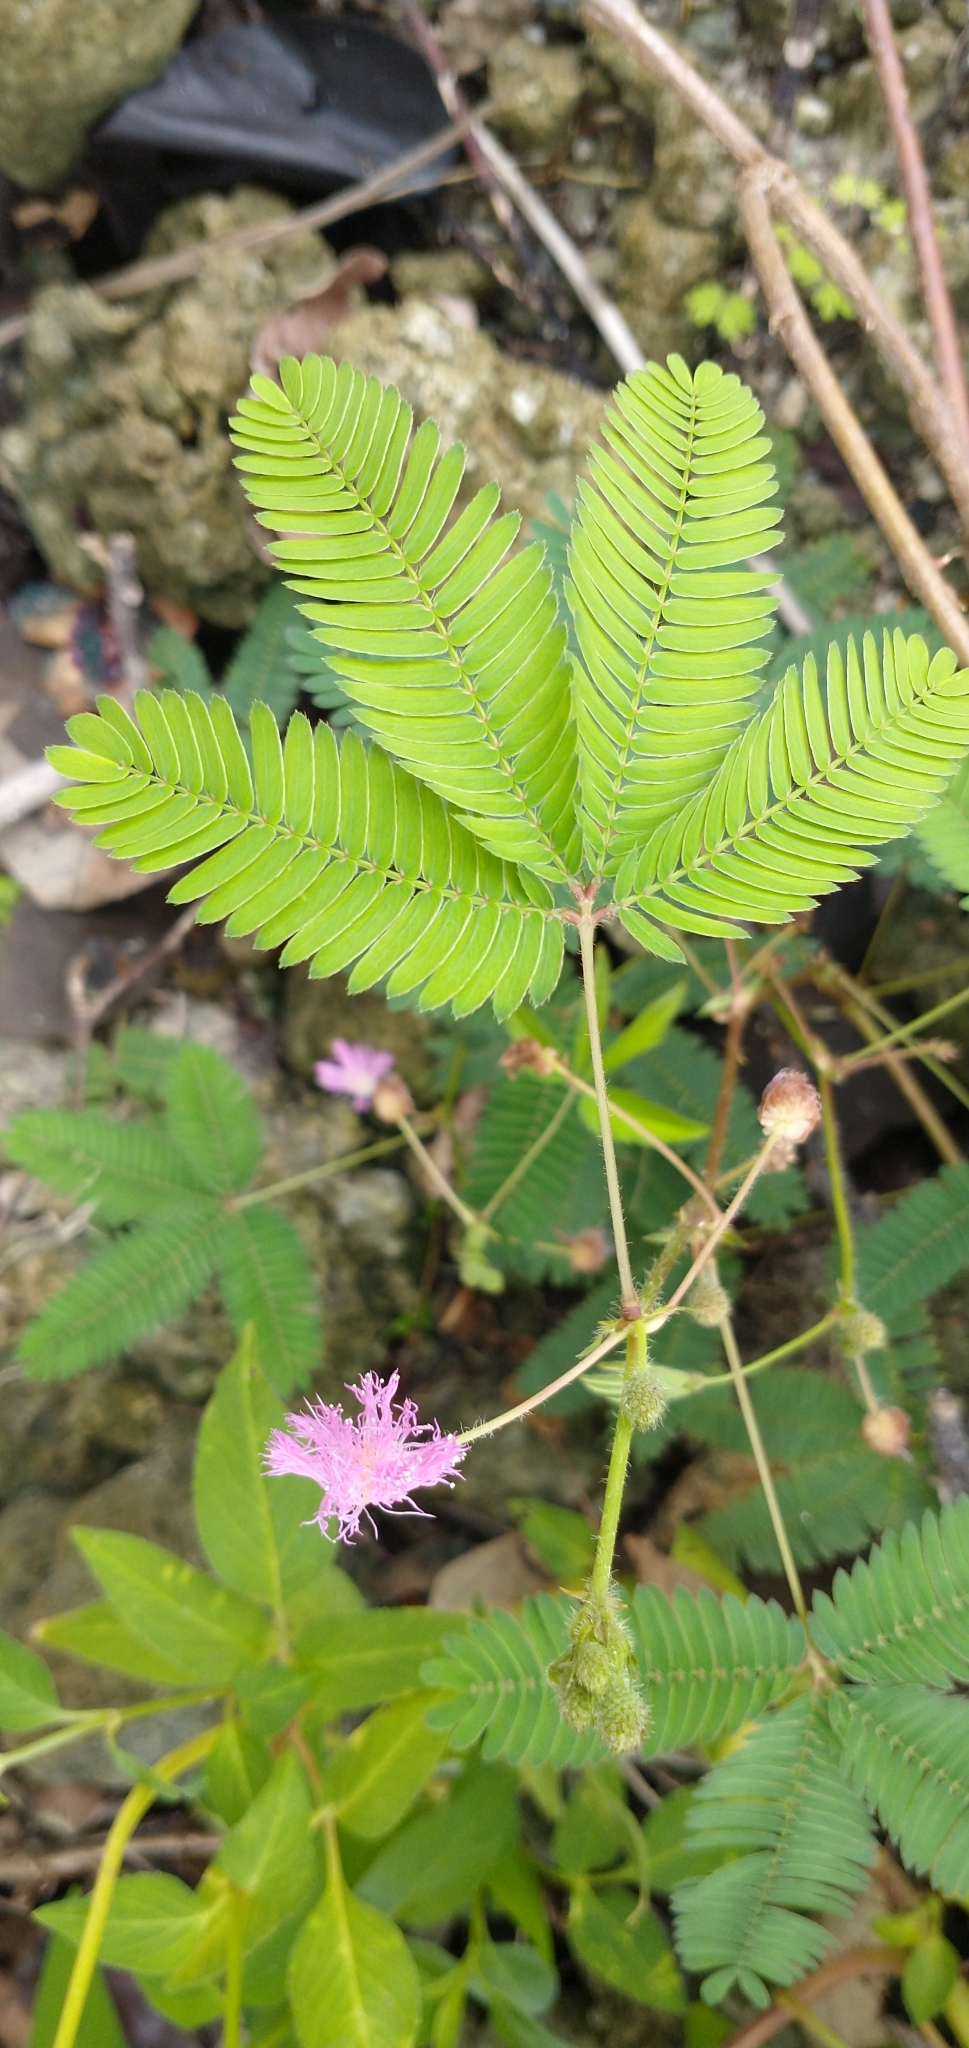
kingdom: Plantae
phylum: Tracheophyta
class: Magnoliopsida
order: Fabales
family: Fabaceae
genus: Mimosa
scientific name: Mimosa pudica
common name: Sensitive plant
